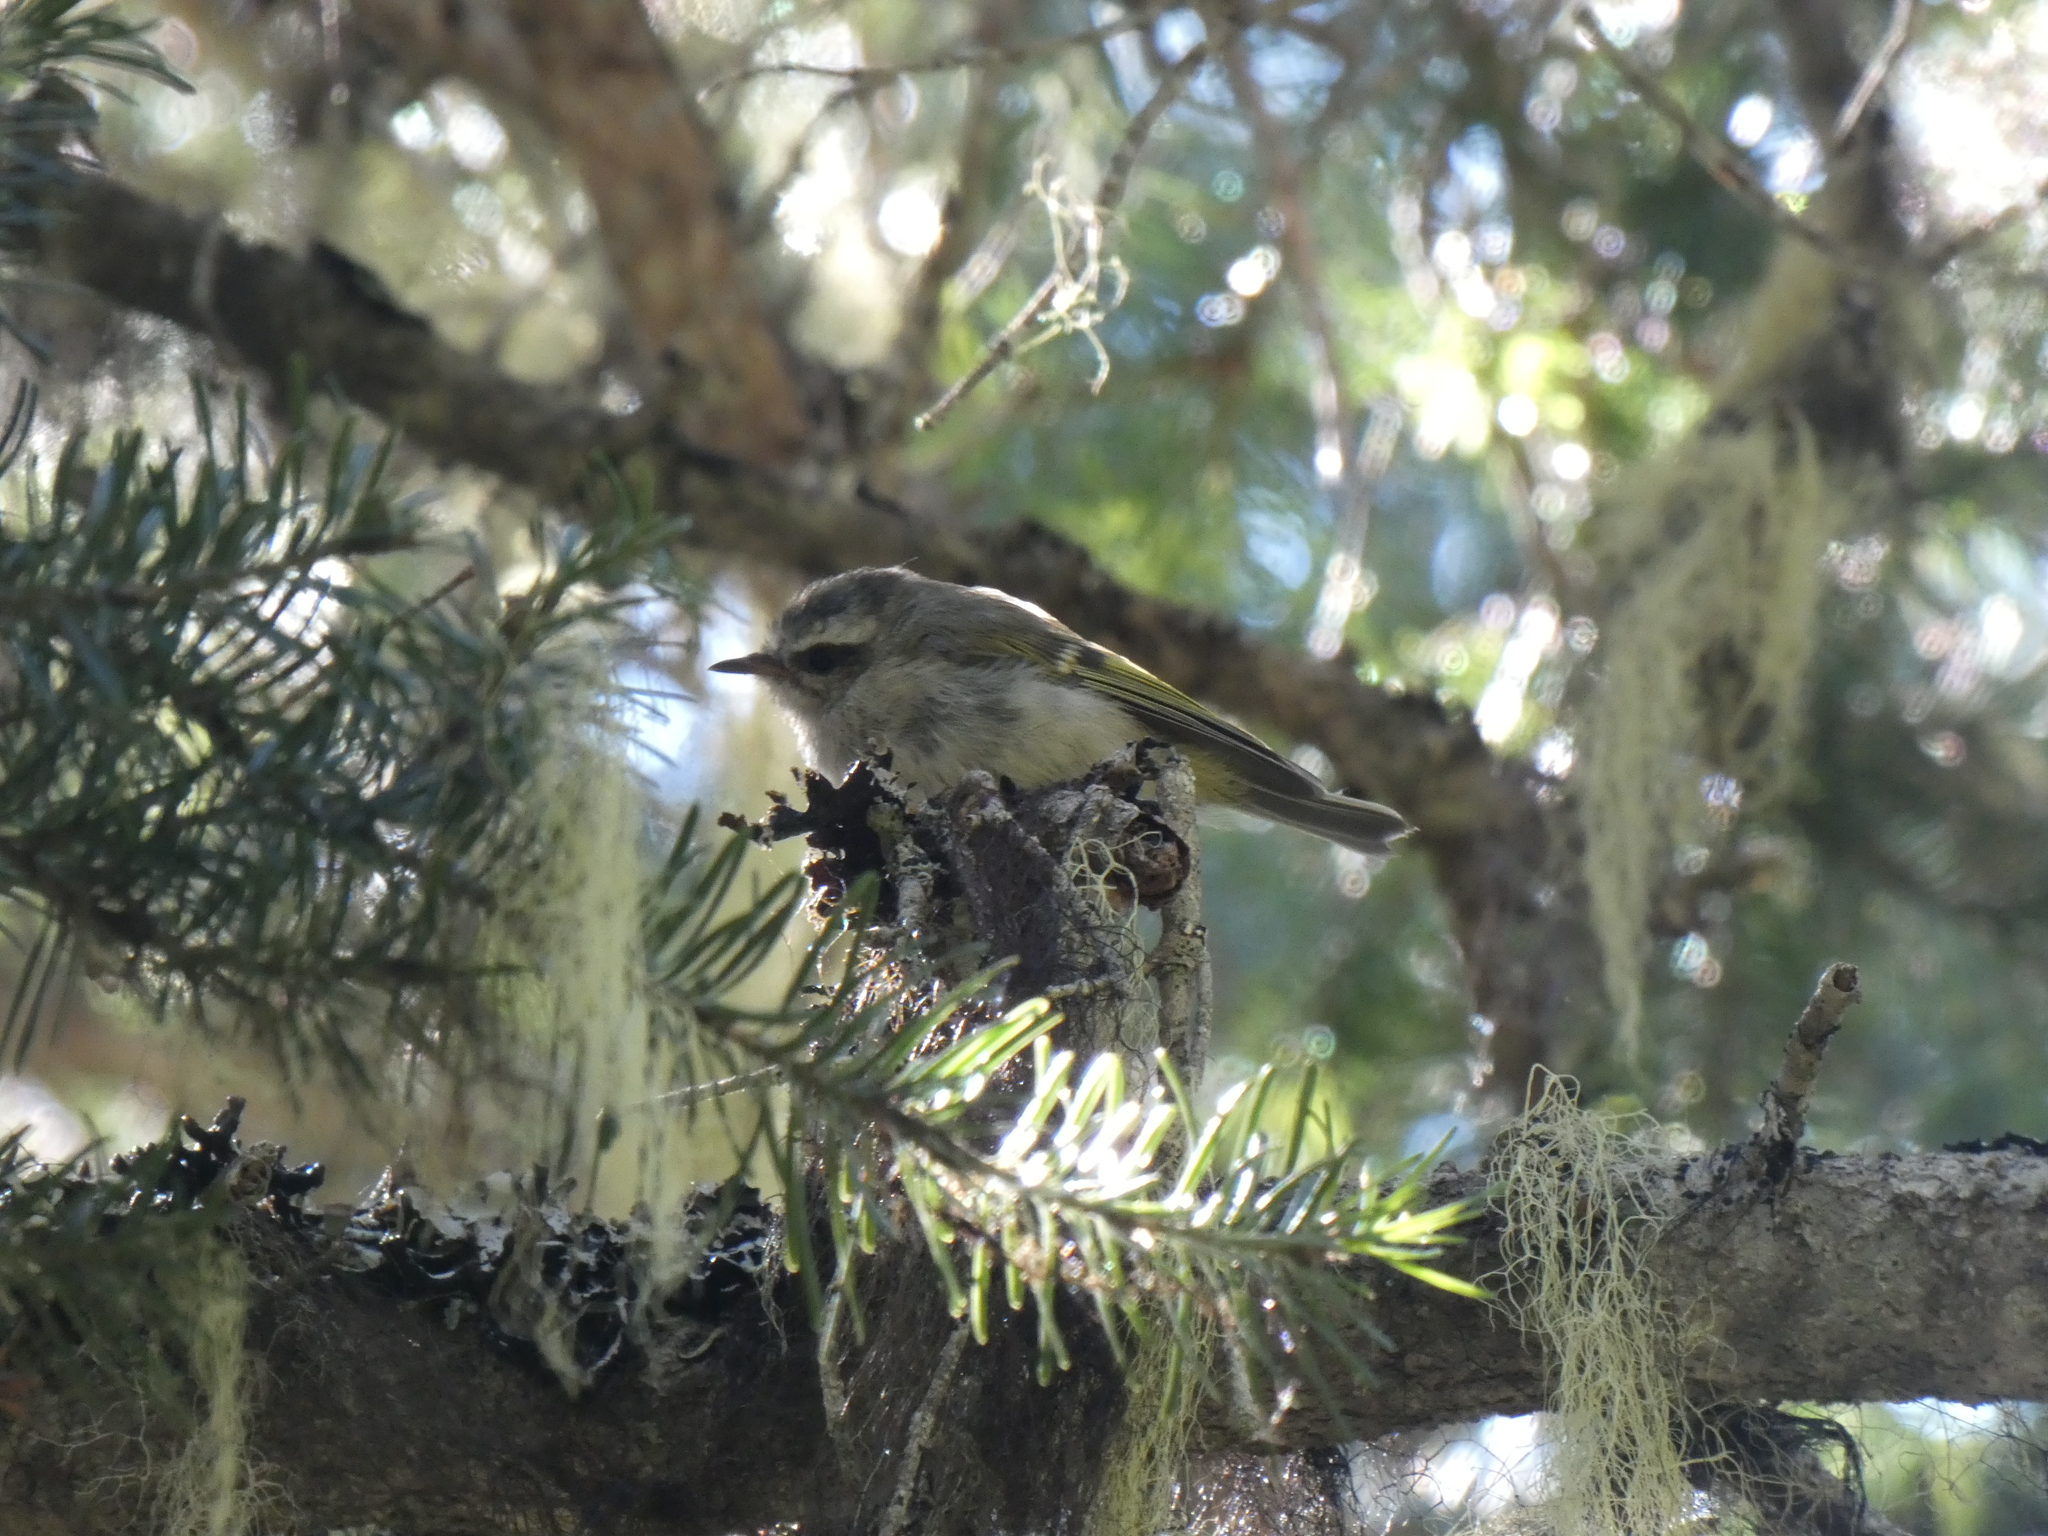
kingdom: Animalia
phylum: Chordata
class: Aves
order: Passeriformes
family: Regulidae
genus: Regulus
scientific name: Regulus satrapa
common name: Golden-crowned kinglet
